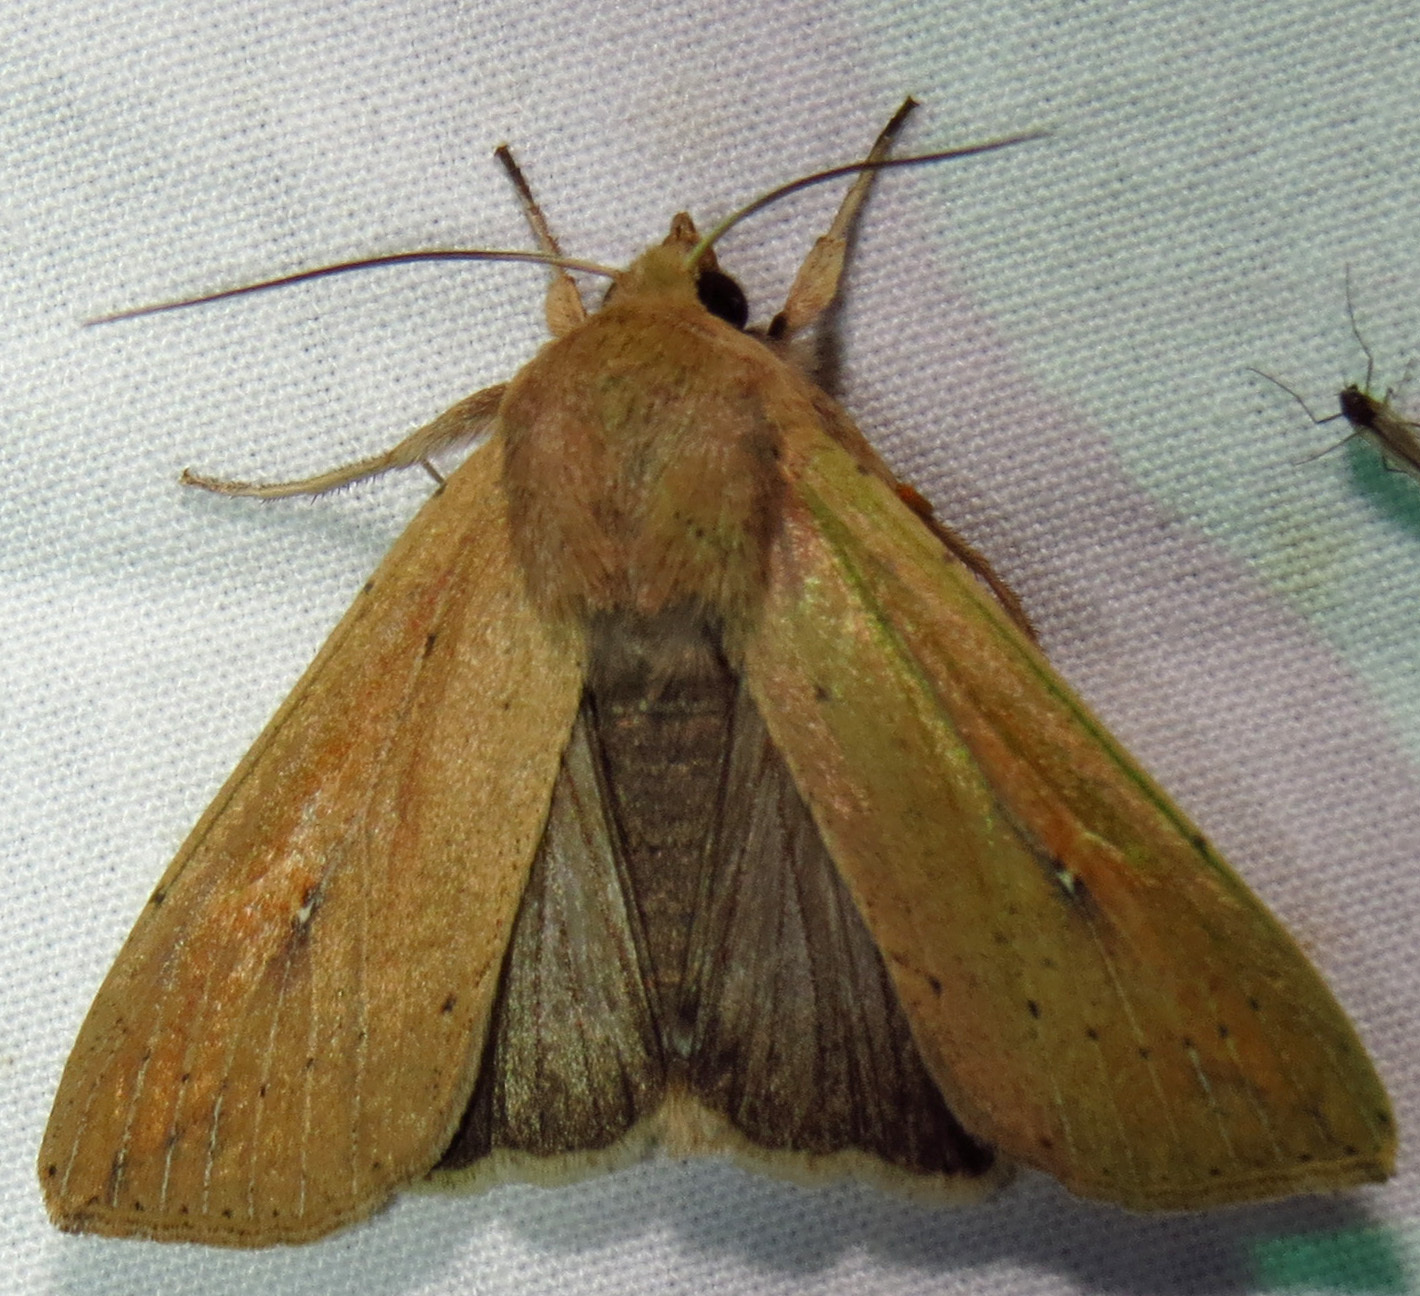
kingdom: Animalia
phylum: Arthropoda
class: Insecta
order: Lepidoptera
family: Noctuidae
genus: Mythimna
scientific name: Mythimna unipuncta
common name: White-speck
